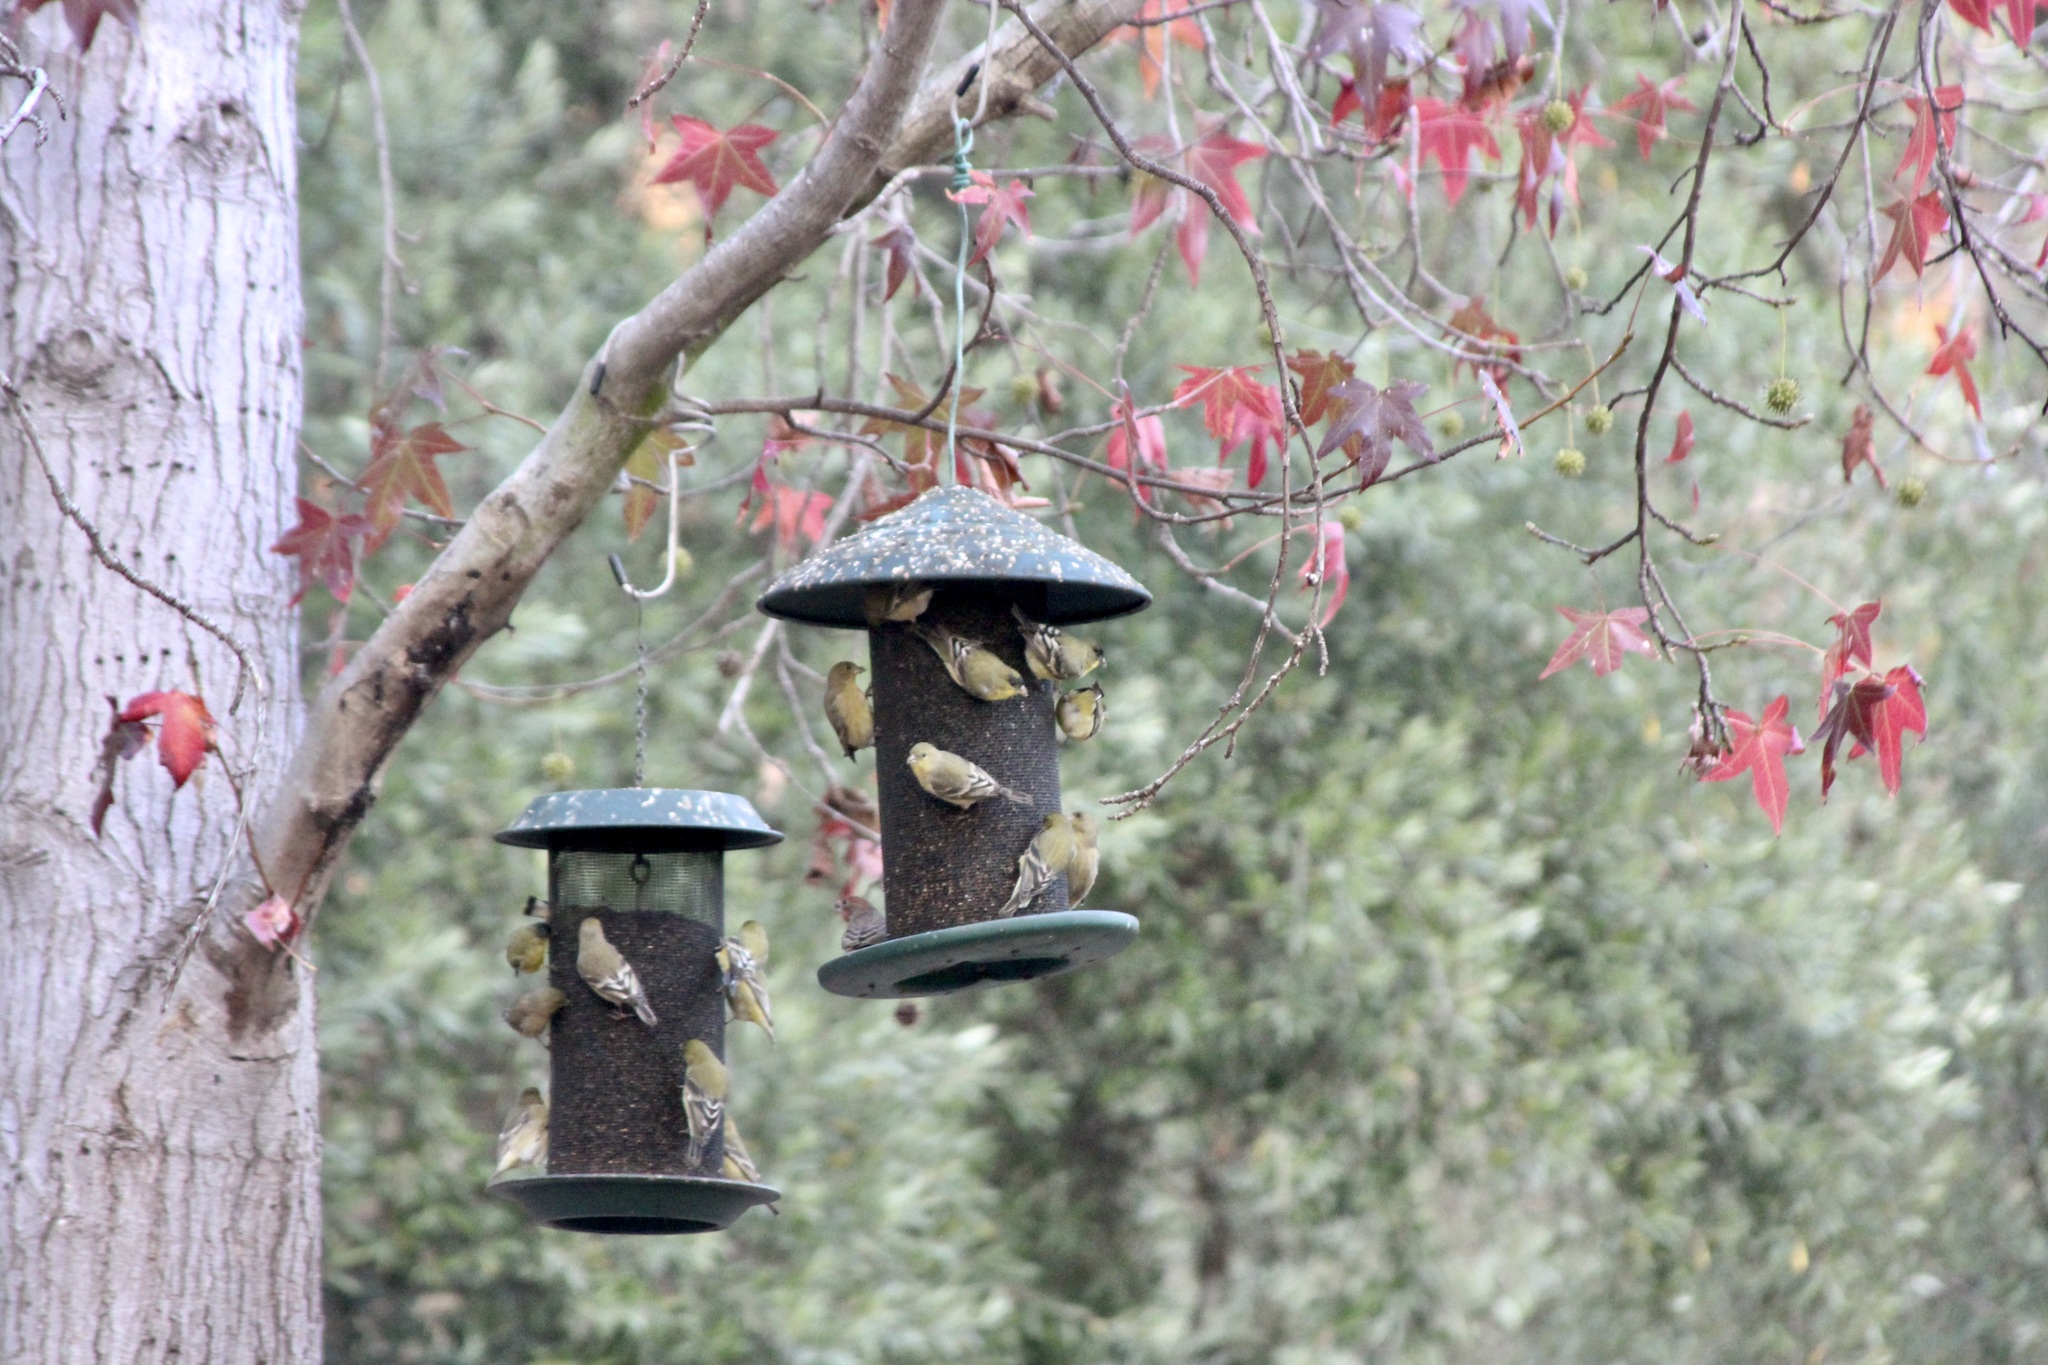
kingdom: Animalia
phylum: Chordata
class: Aves
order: Passeriformes
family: Fringillidae
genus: Spinus
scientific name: Spinus psaltria
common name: Lesser goldfinch
